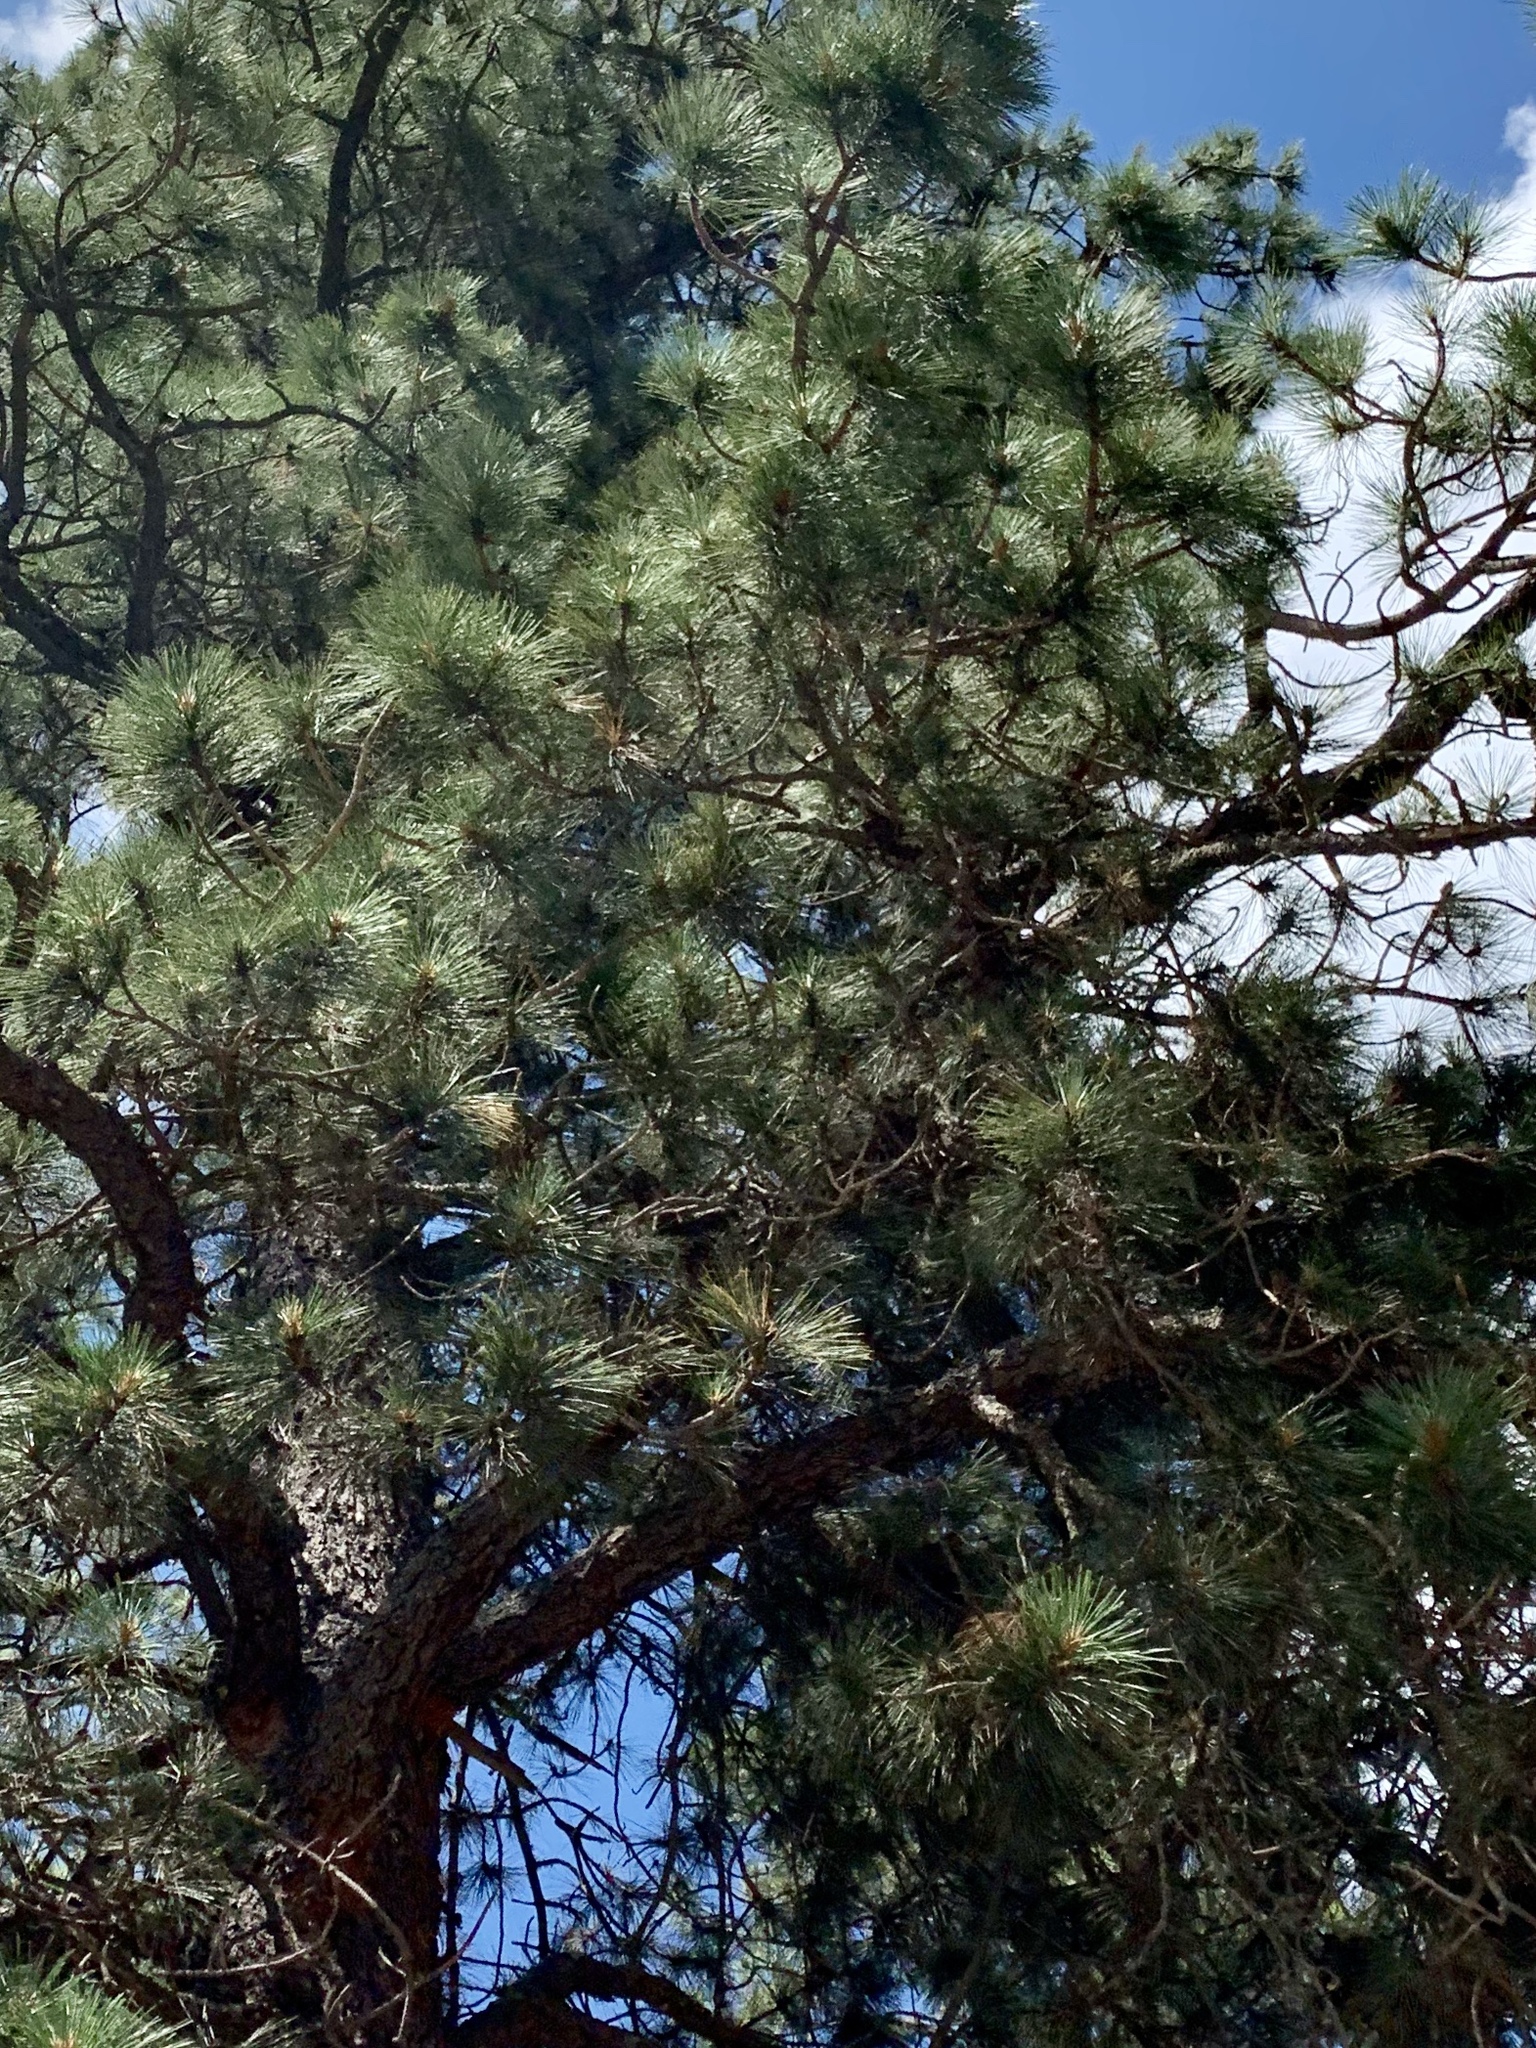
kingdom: Plantae
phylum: Tracheophyta
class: Pinopsida
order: Pinales
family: Pinaceae
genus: Pinus
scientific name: Pinus ponderosa
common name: Western yellow-pine
